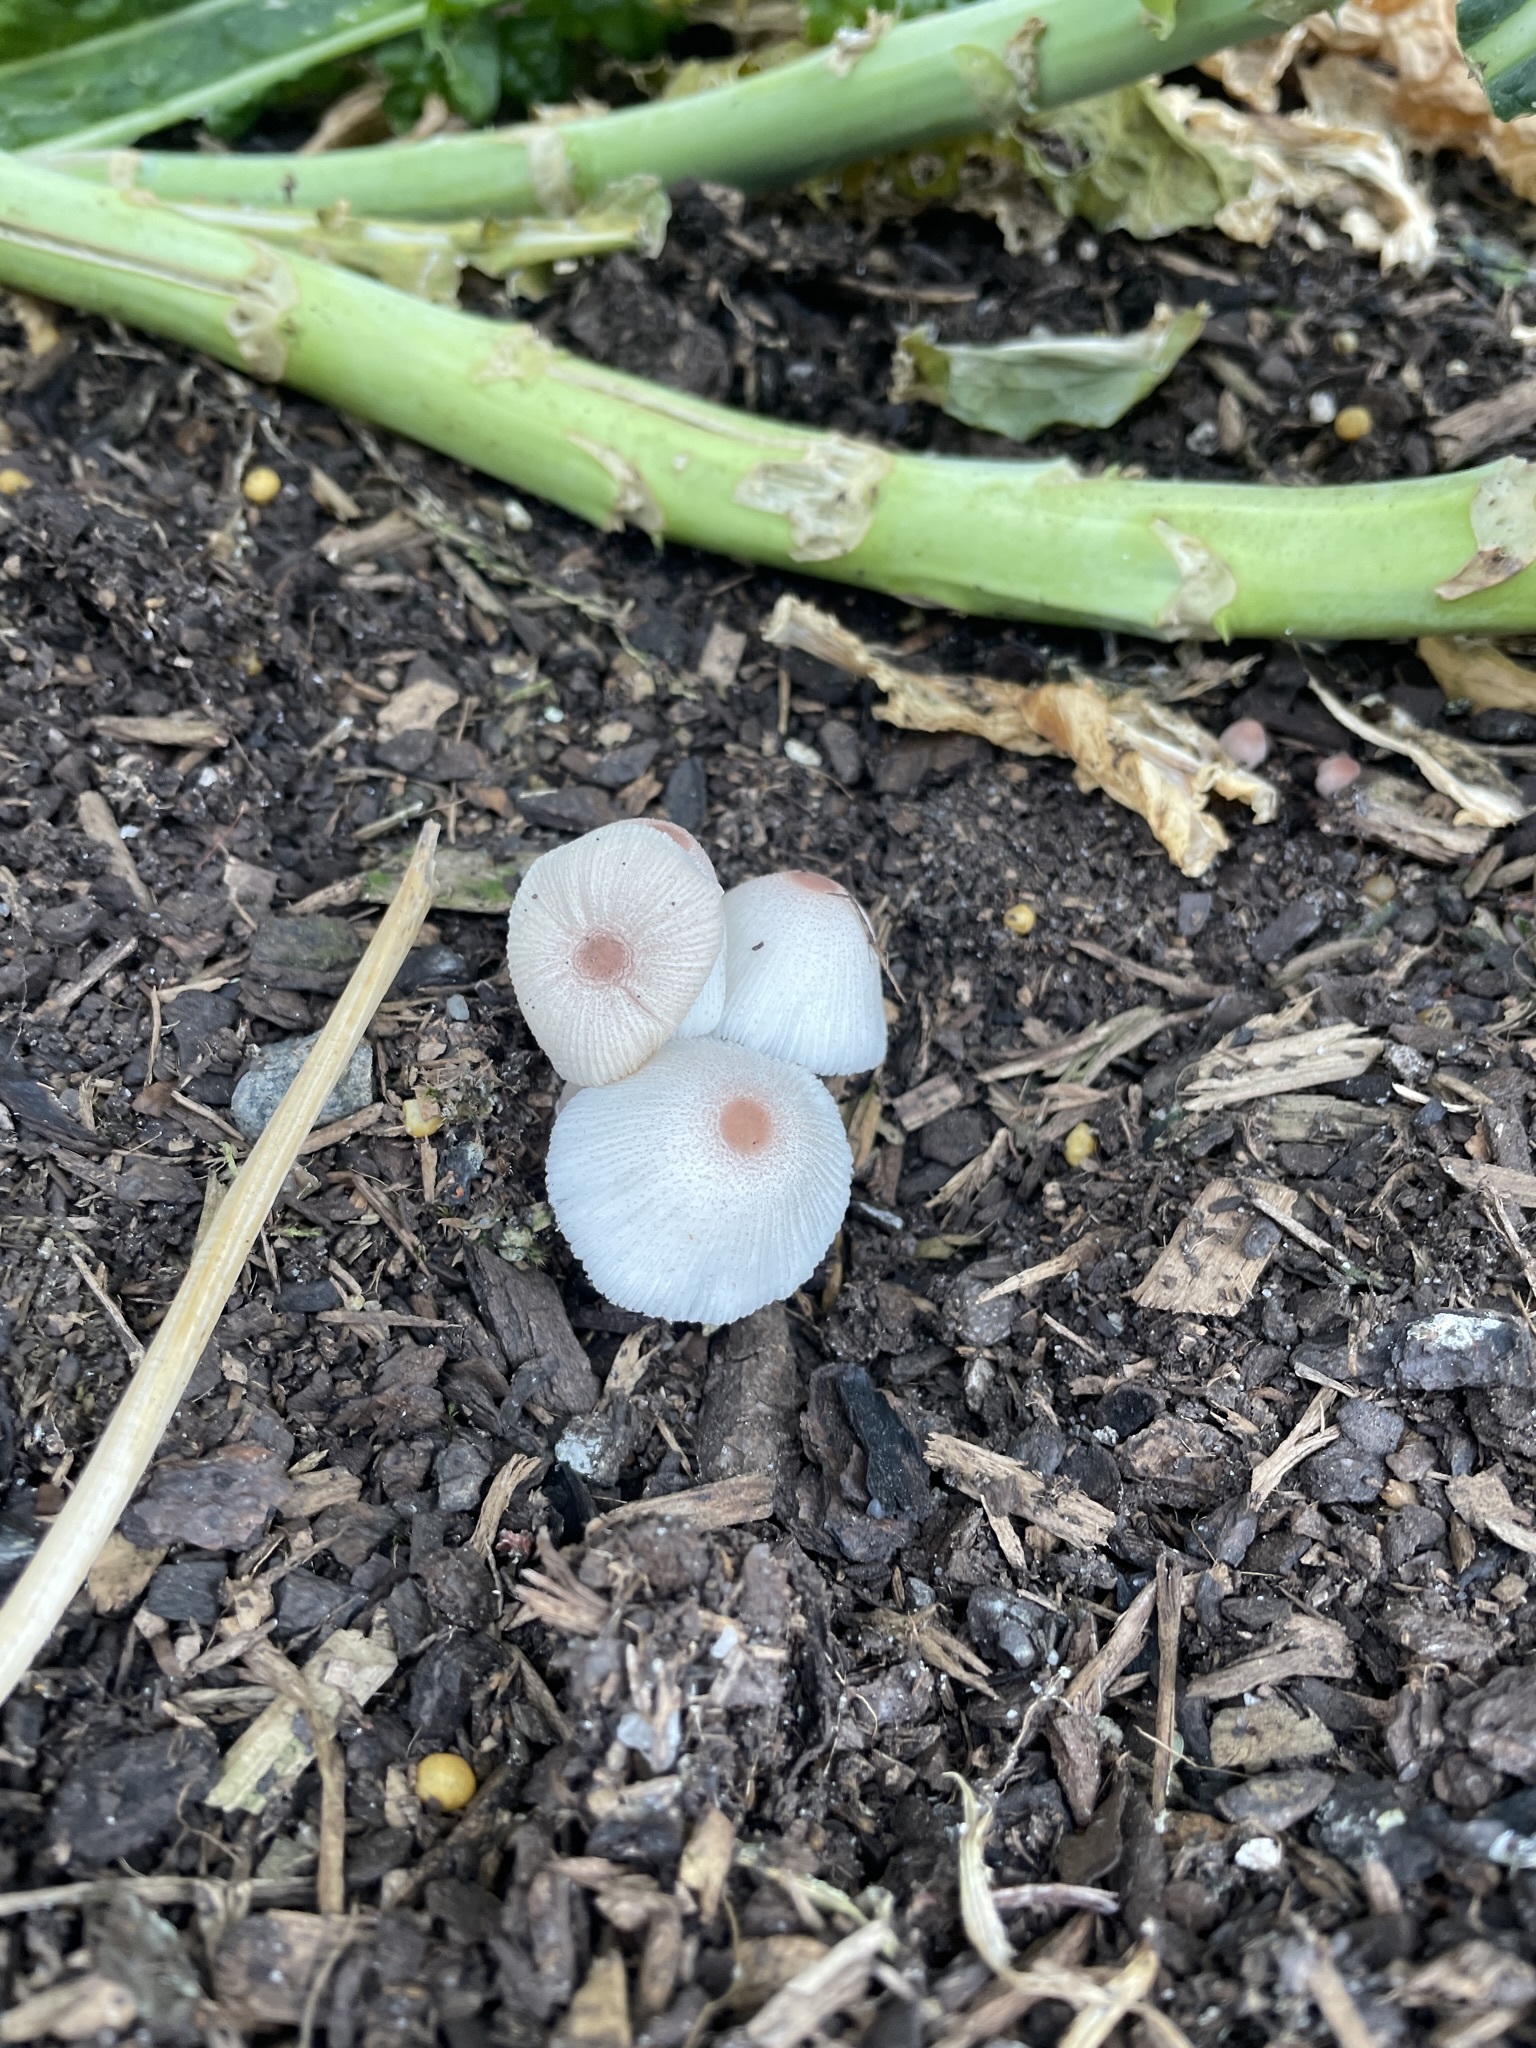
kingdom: Fungi
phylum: Basidiomycota
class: Agaricomycetes
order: Agaricales
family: Agaricaceae
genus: Leucocoprinus
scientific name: Leucocoprinus ianthinus
